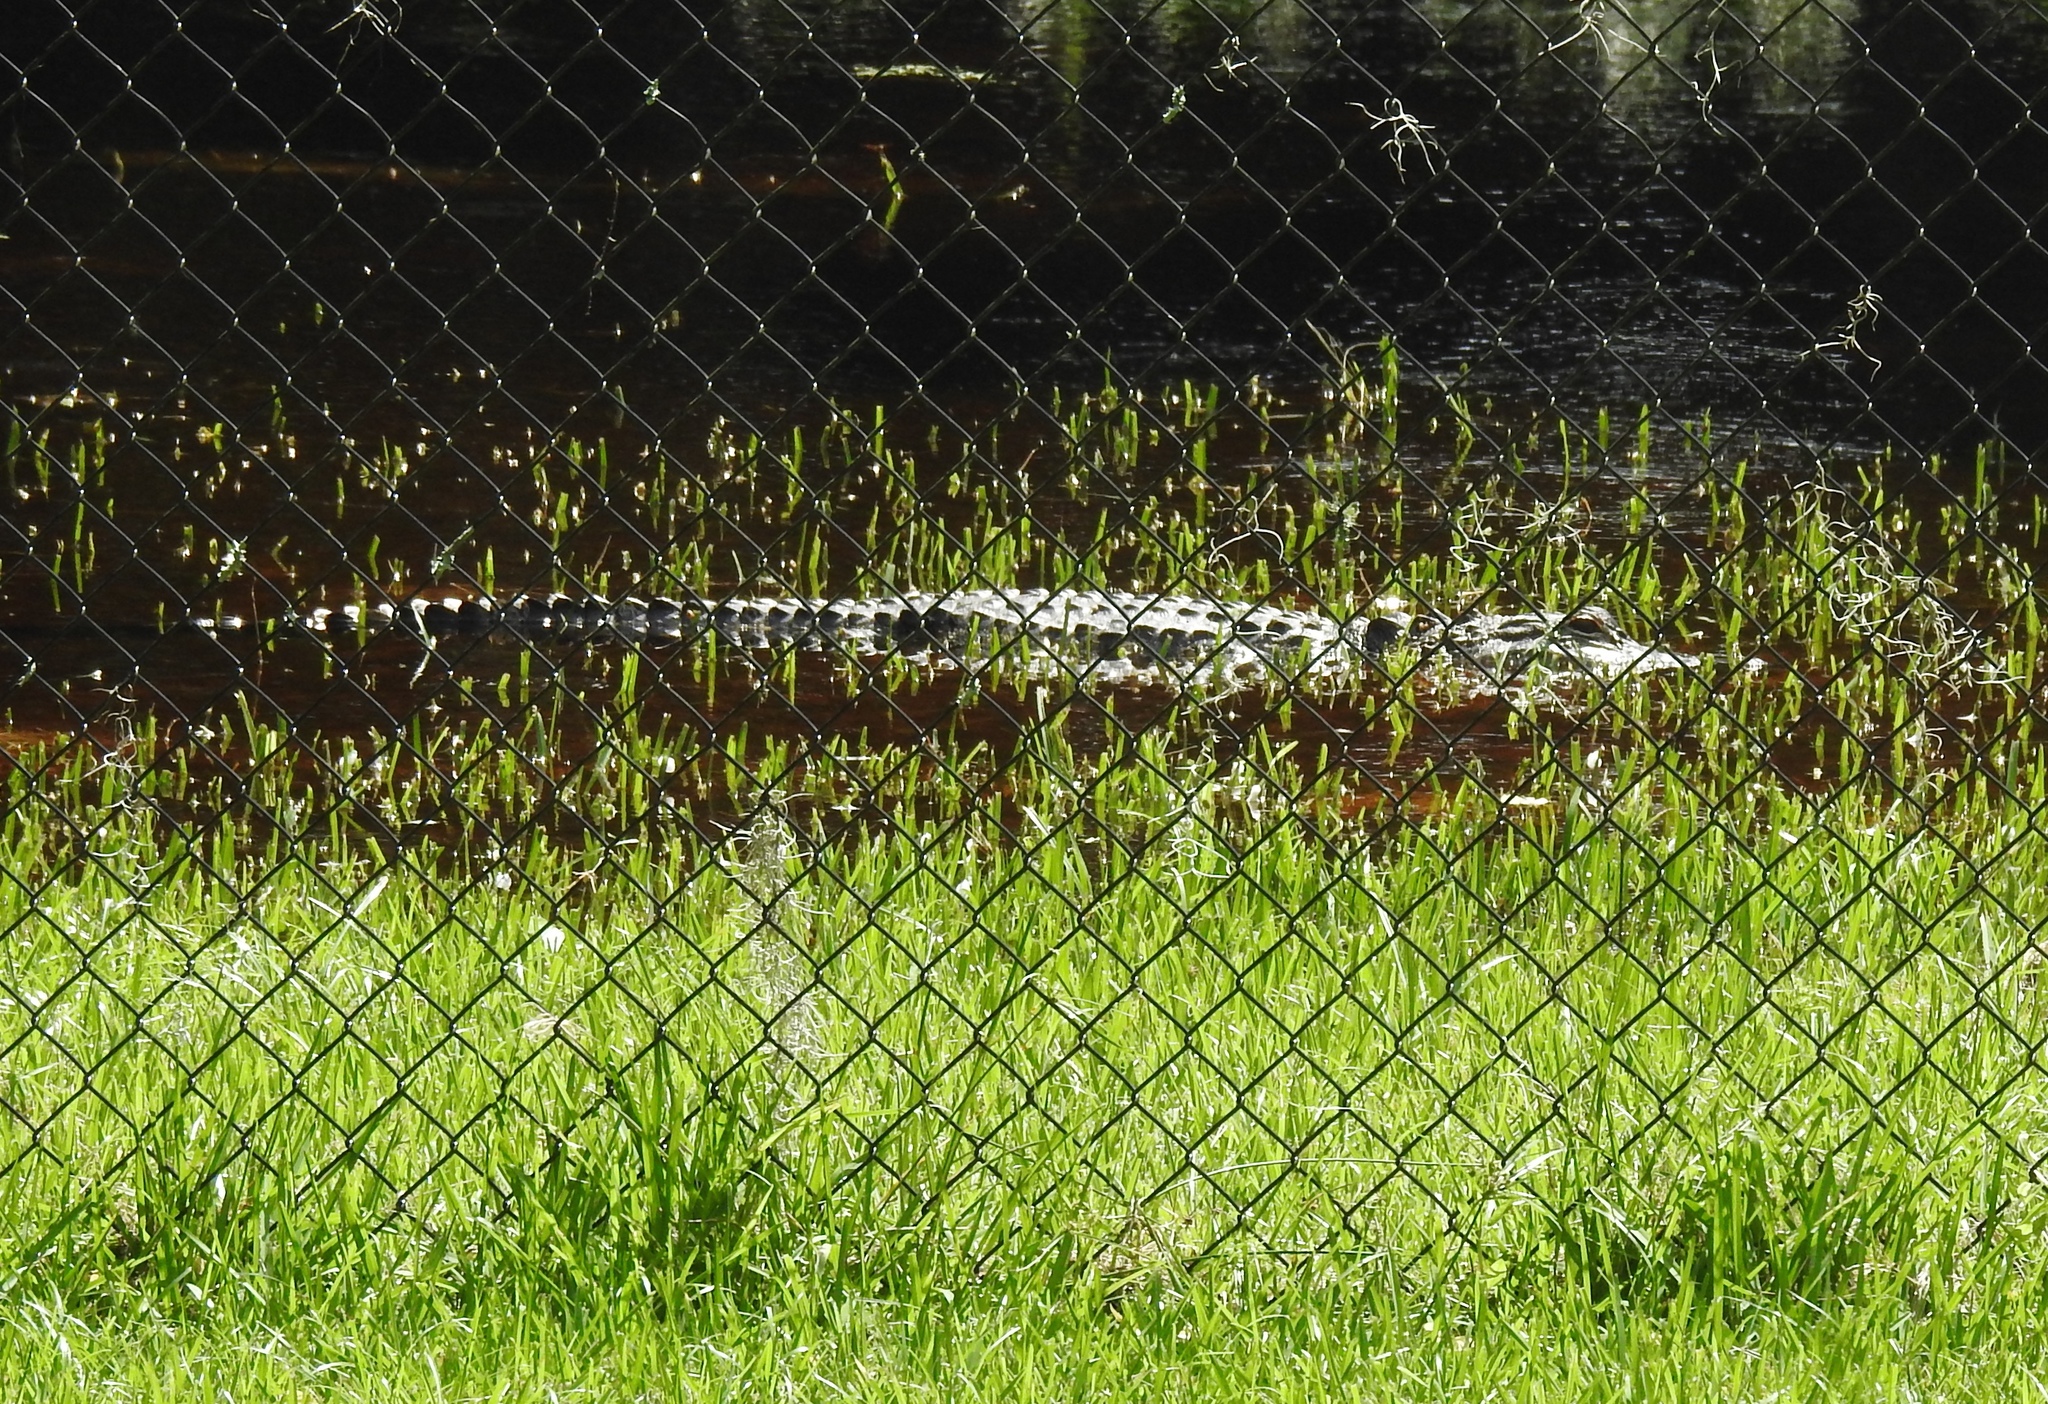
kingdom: Animalia
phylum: Chordata
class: Crocodylia
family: Alligatoridae
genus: Alligator
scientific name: Alligator mississippiensis
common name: American alligator
